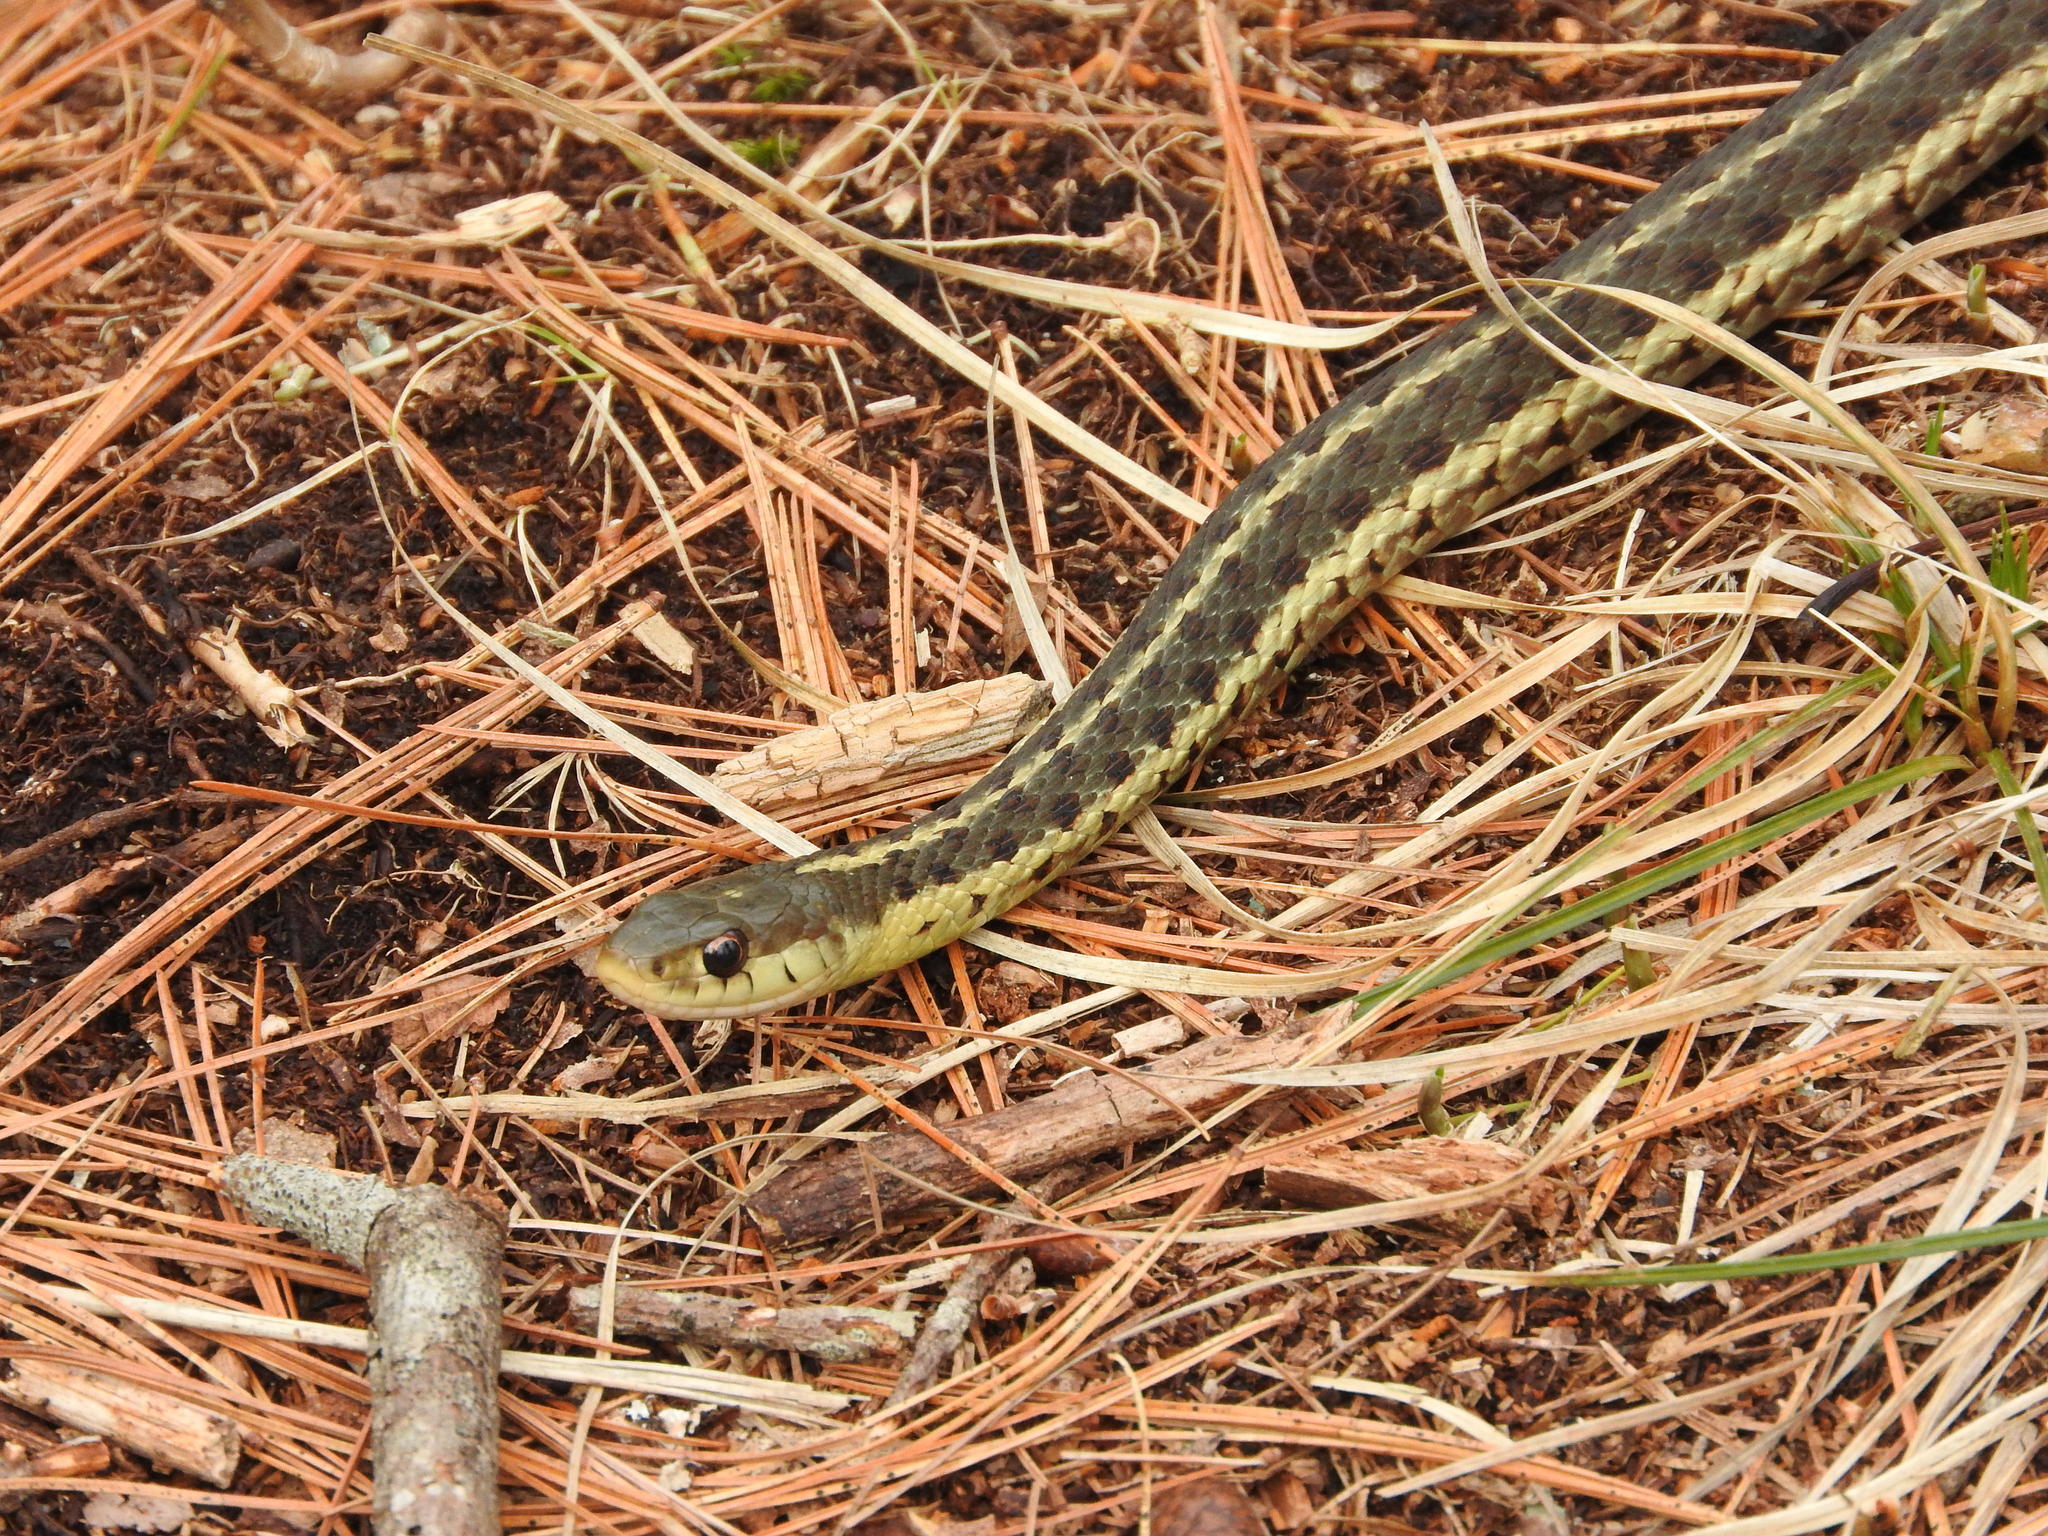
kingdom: Animalia
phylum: Chordata
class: Squamata
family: Colubridae
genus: Thamnophis
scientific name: Thamnophis sirtalis
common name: Common garter snake
